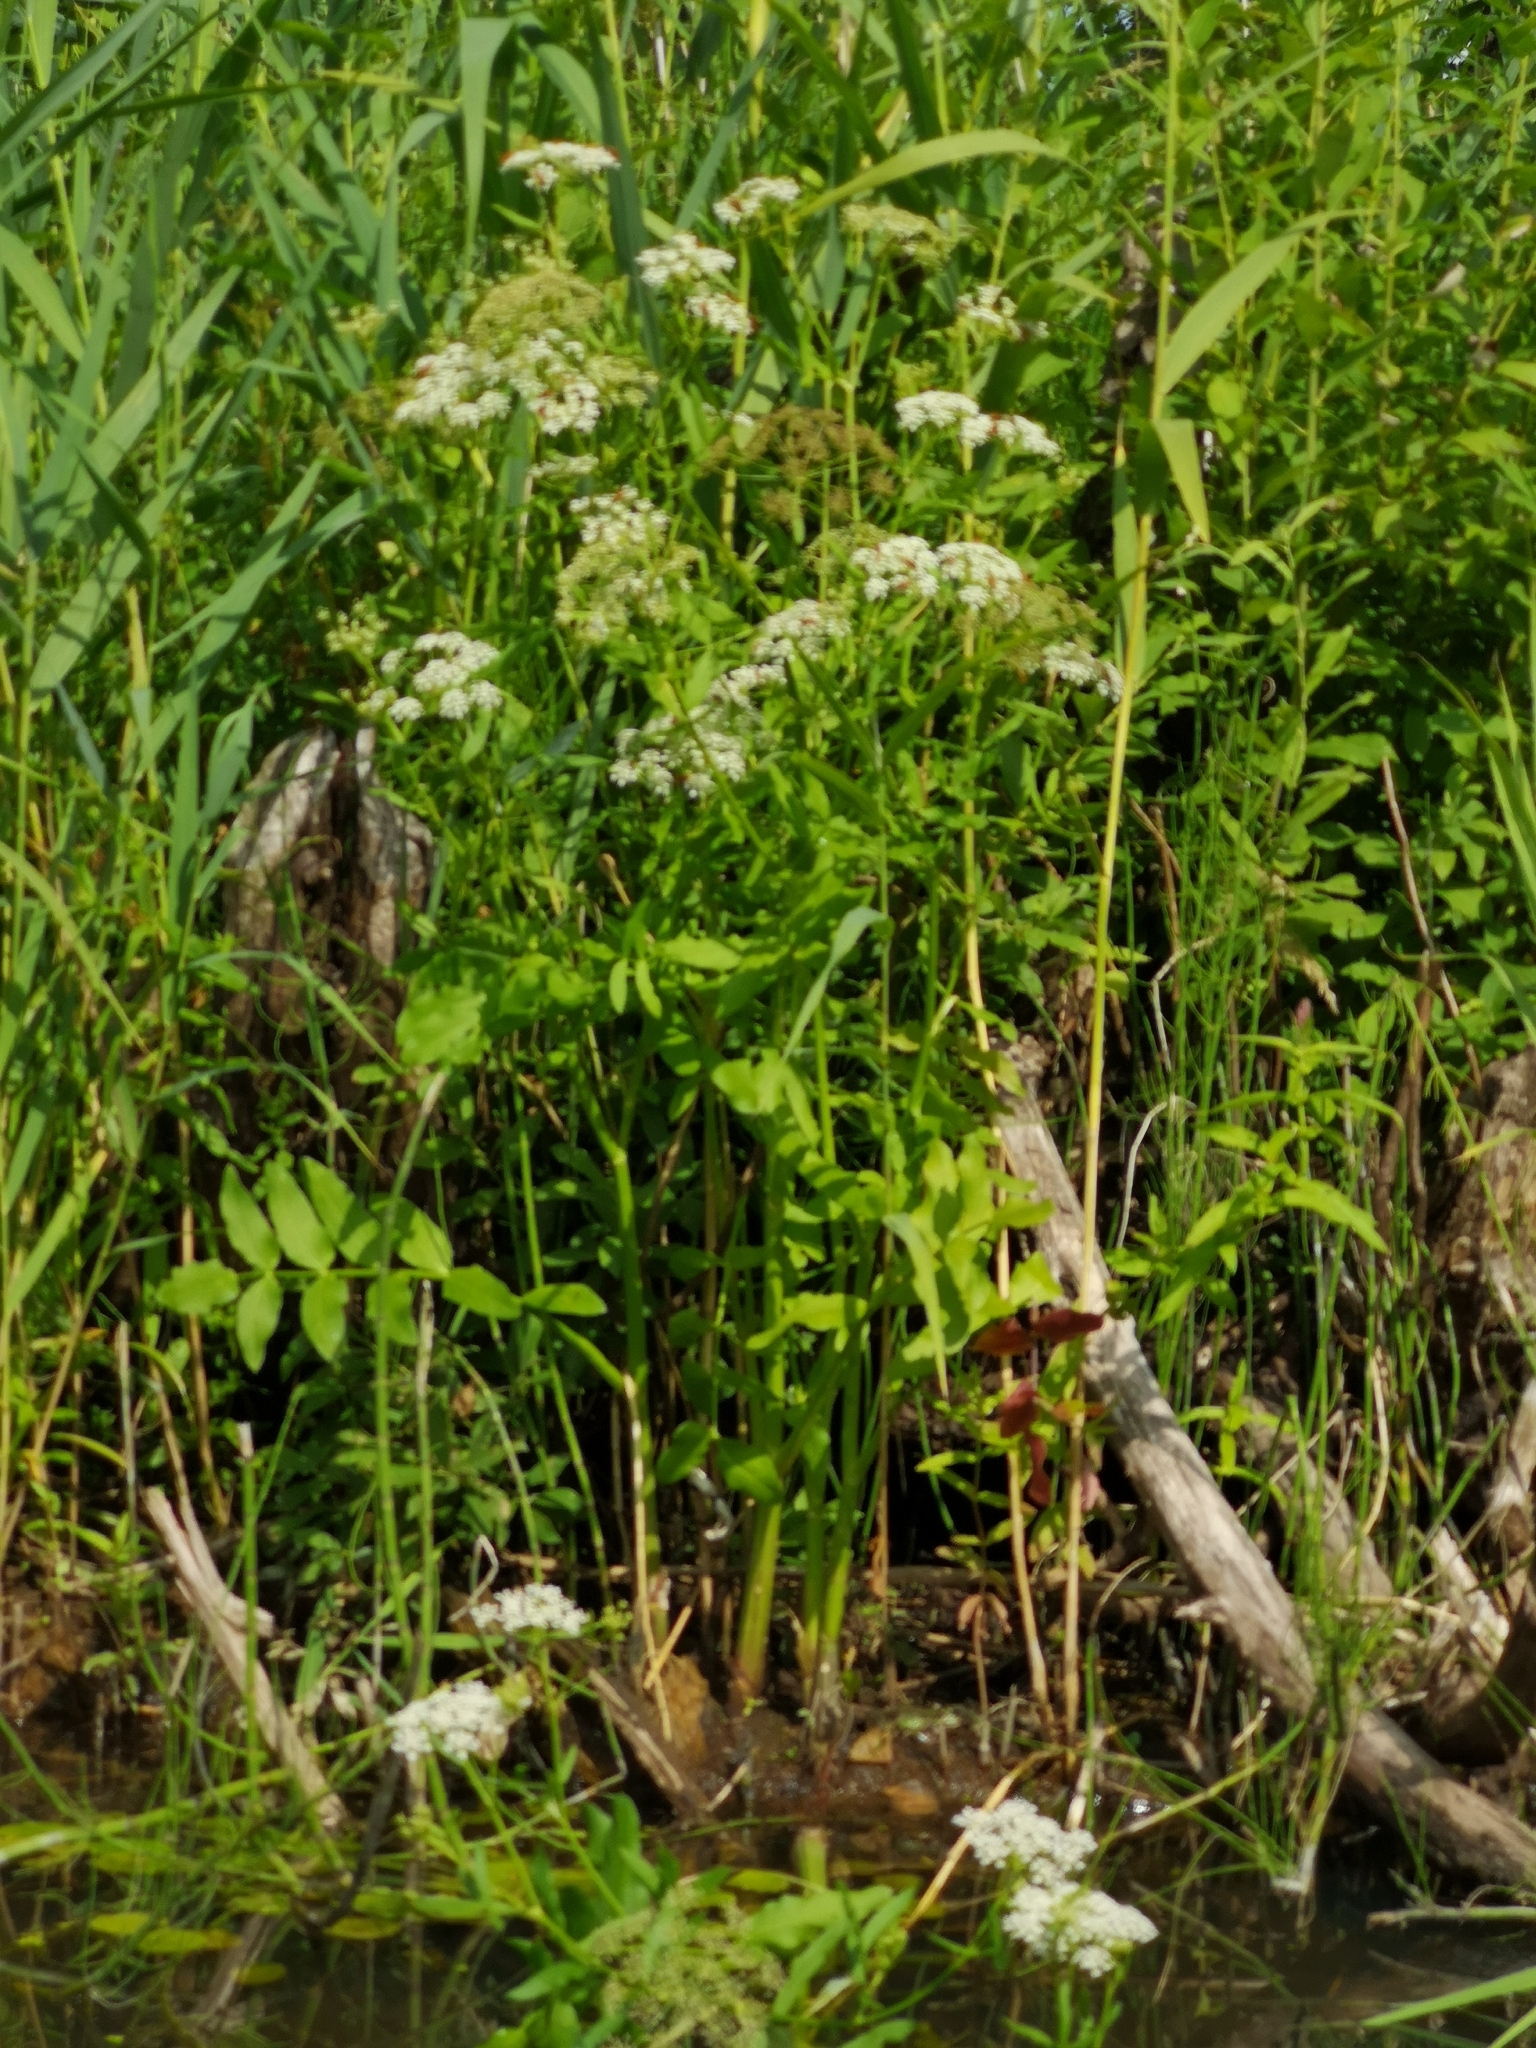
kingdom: Plantae
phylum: Tracheophyta
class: Magnoliopsida
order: Apiales
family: Apiaceae
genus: Sium
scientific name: Sium latifolium
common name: Greater water-parsnip
